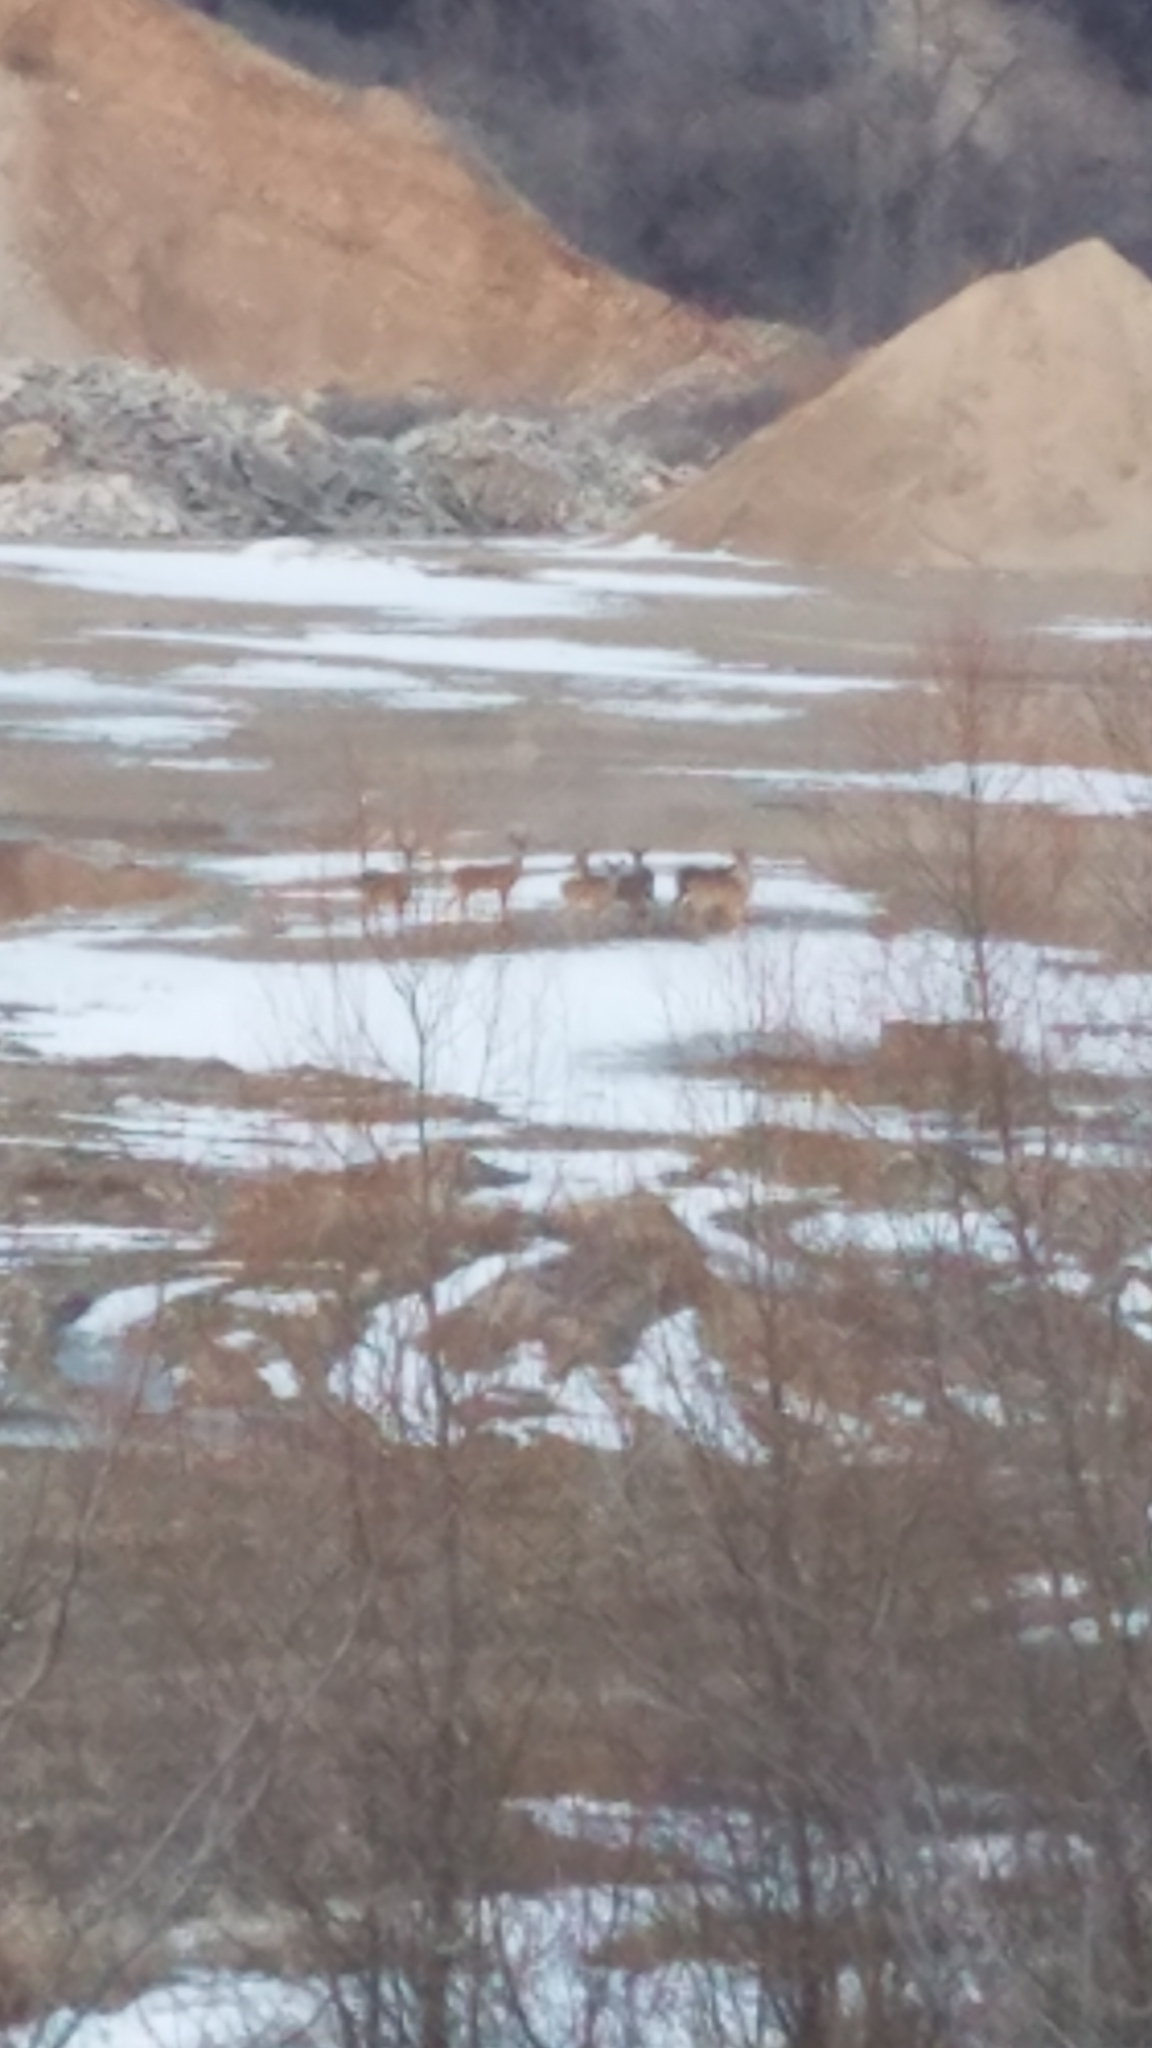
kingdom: Animalia
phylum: Chordata
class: Mammalia
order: Artiodactyla
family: Cervidae
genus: Odocoileus
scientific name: Odocoileus virginianus
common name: White-tailed deer
